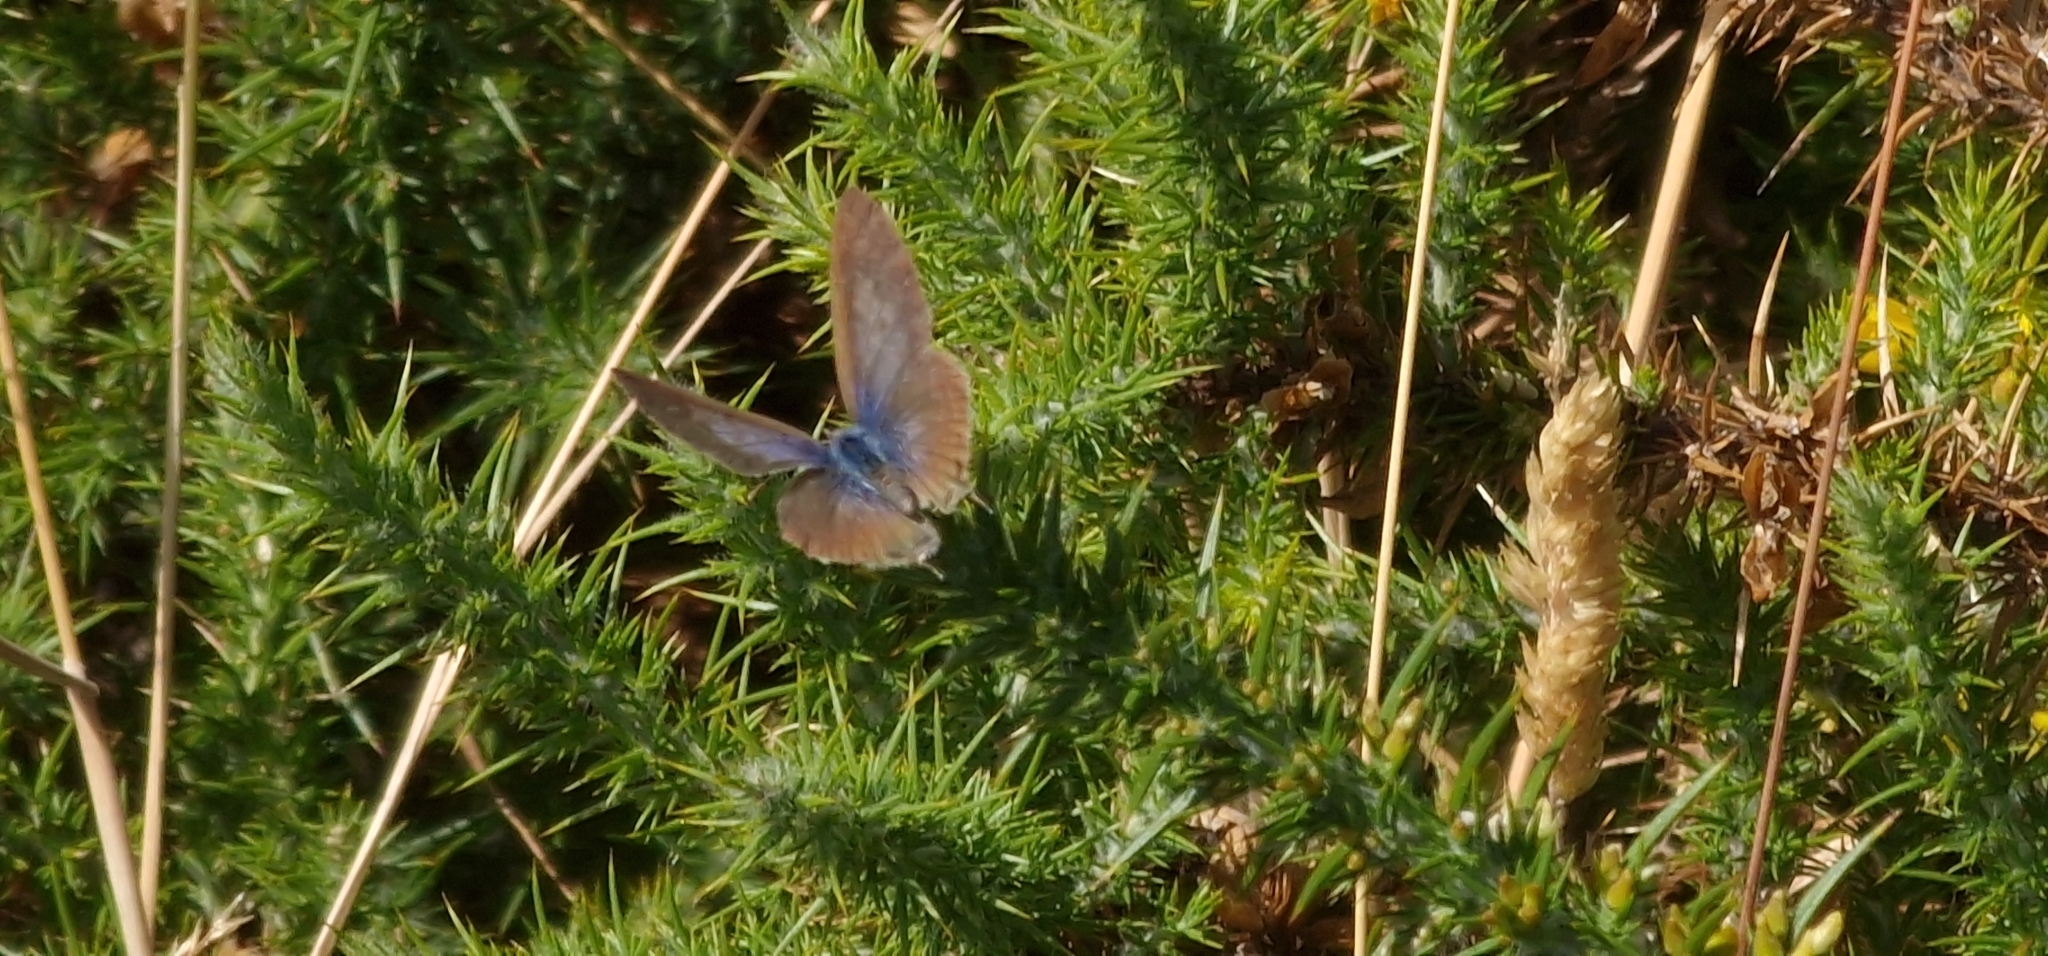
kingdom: Animalia
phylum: Arthropoda
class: Insecta
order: Lepidoptera
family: Lycaenidae
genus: Leptotes
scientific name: Leptotes pirithous
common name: Lang's short-tailed blue
